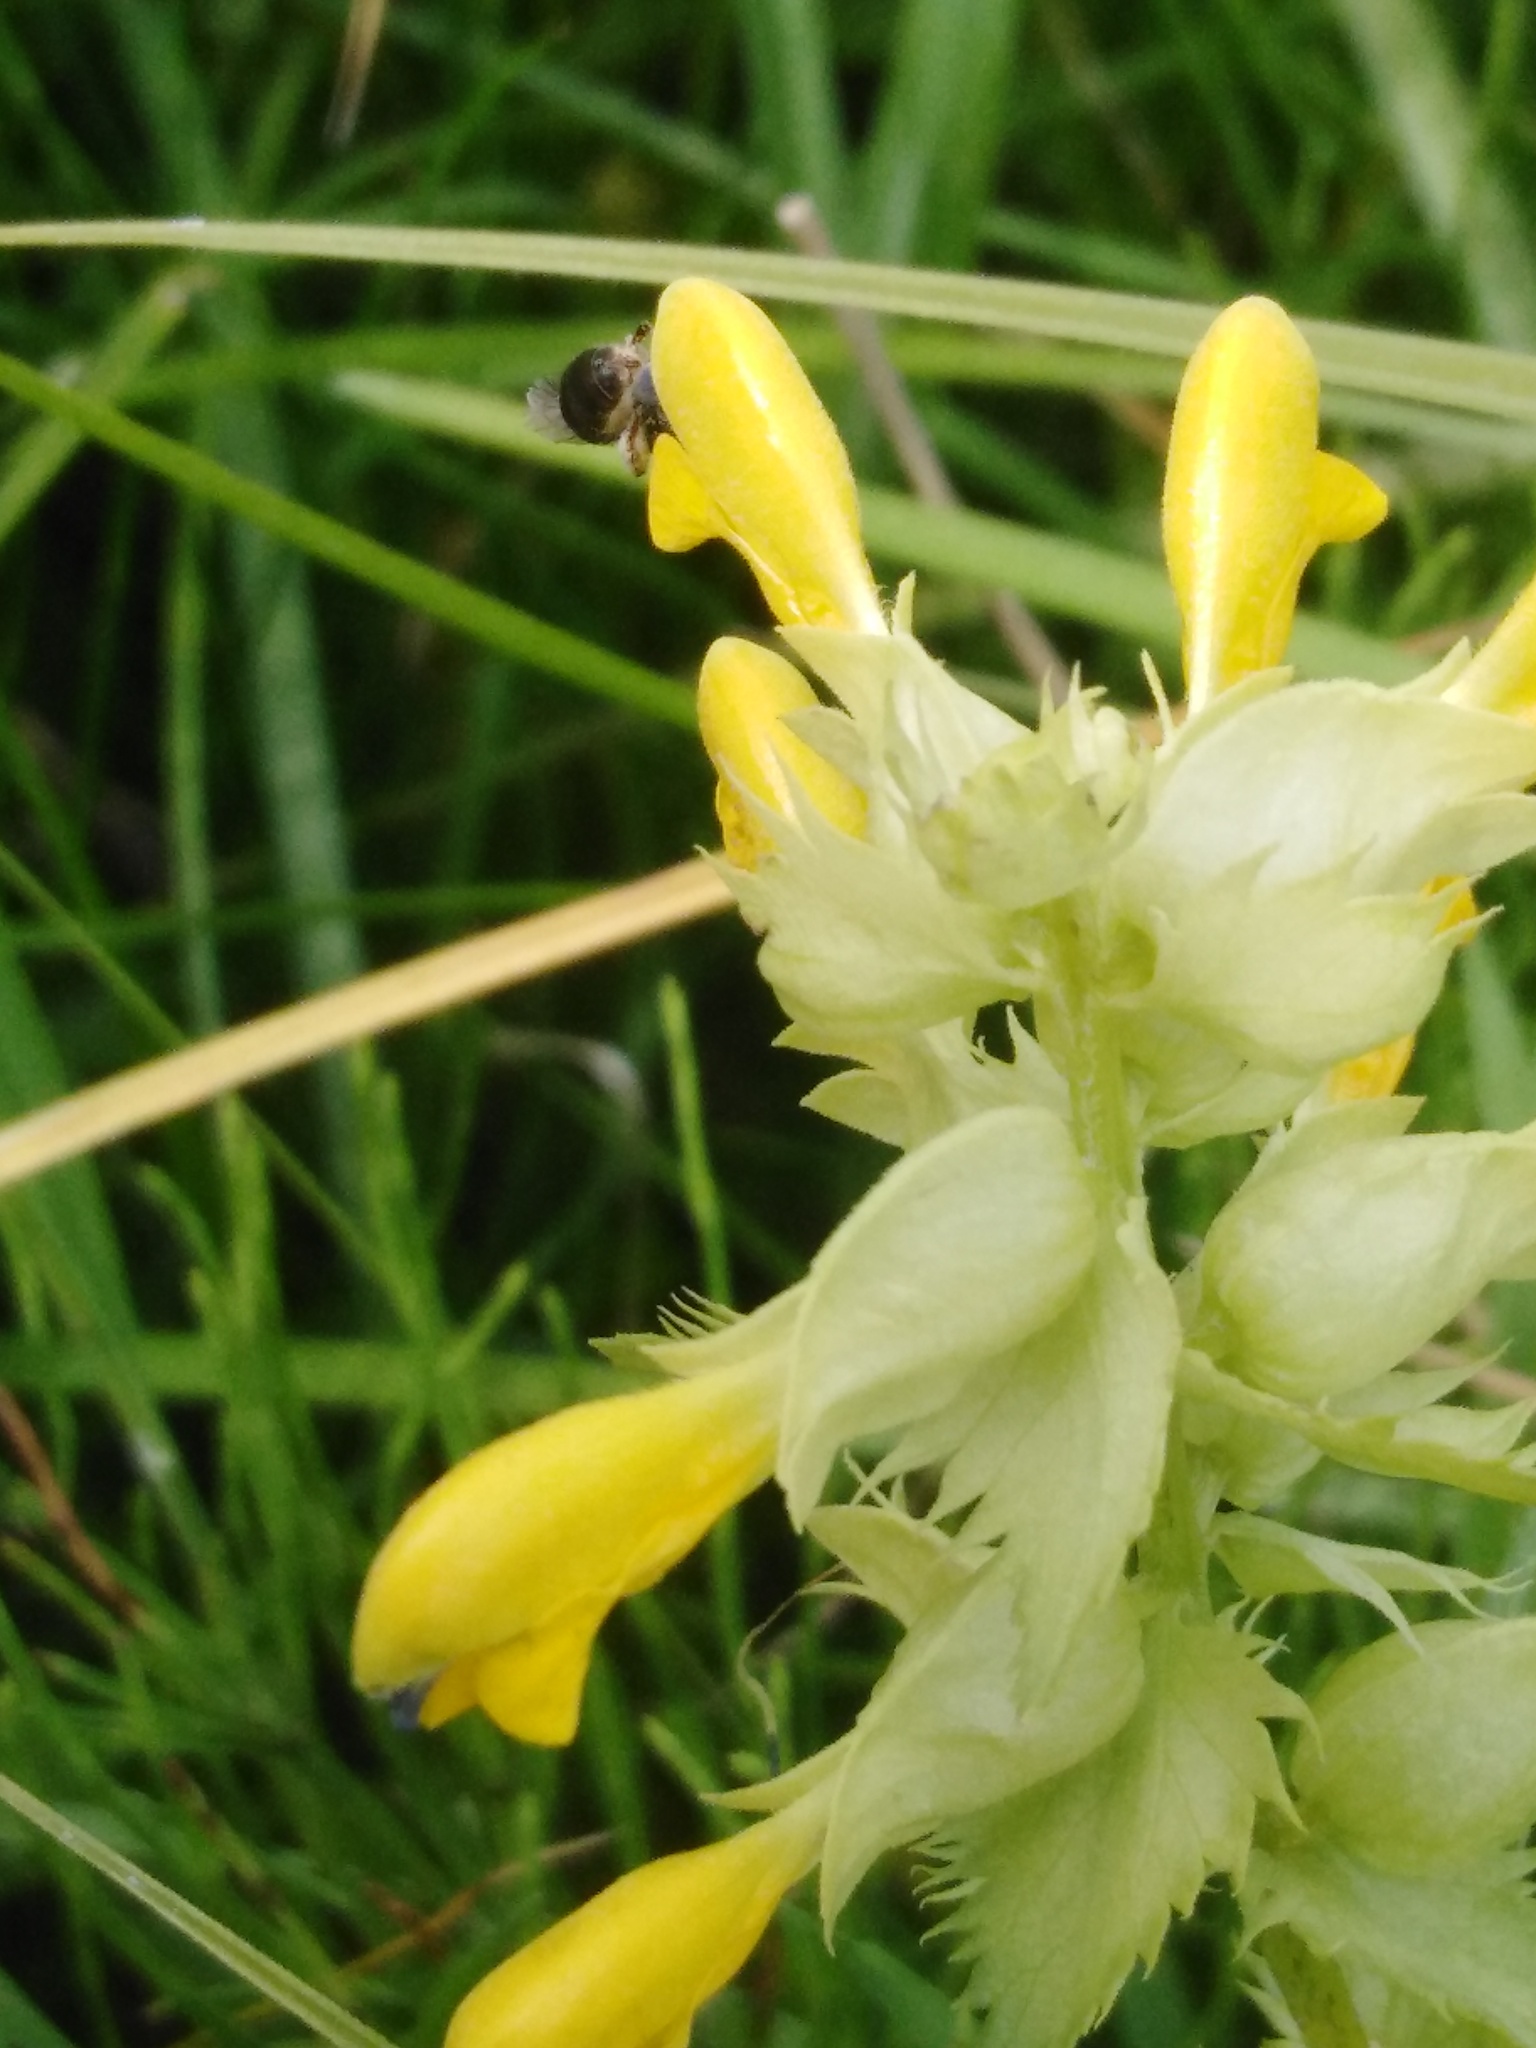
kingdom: Plantae
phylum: Tracheophyta
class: Magnoliopsida
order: Lamiales
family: Orobanchaceae
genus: Rhinanthus
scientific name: Rhinanthus serotinus
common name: Late-flowering yellow rattle
